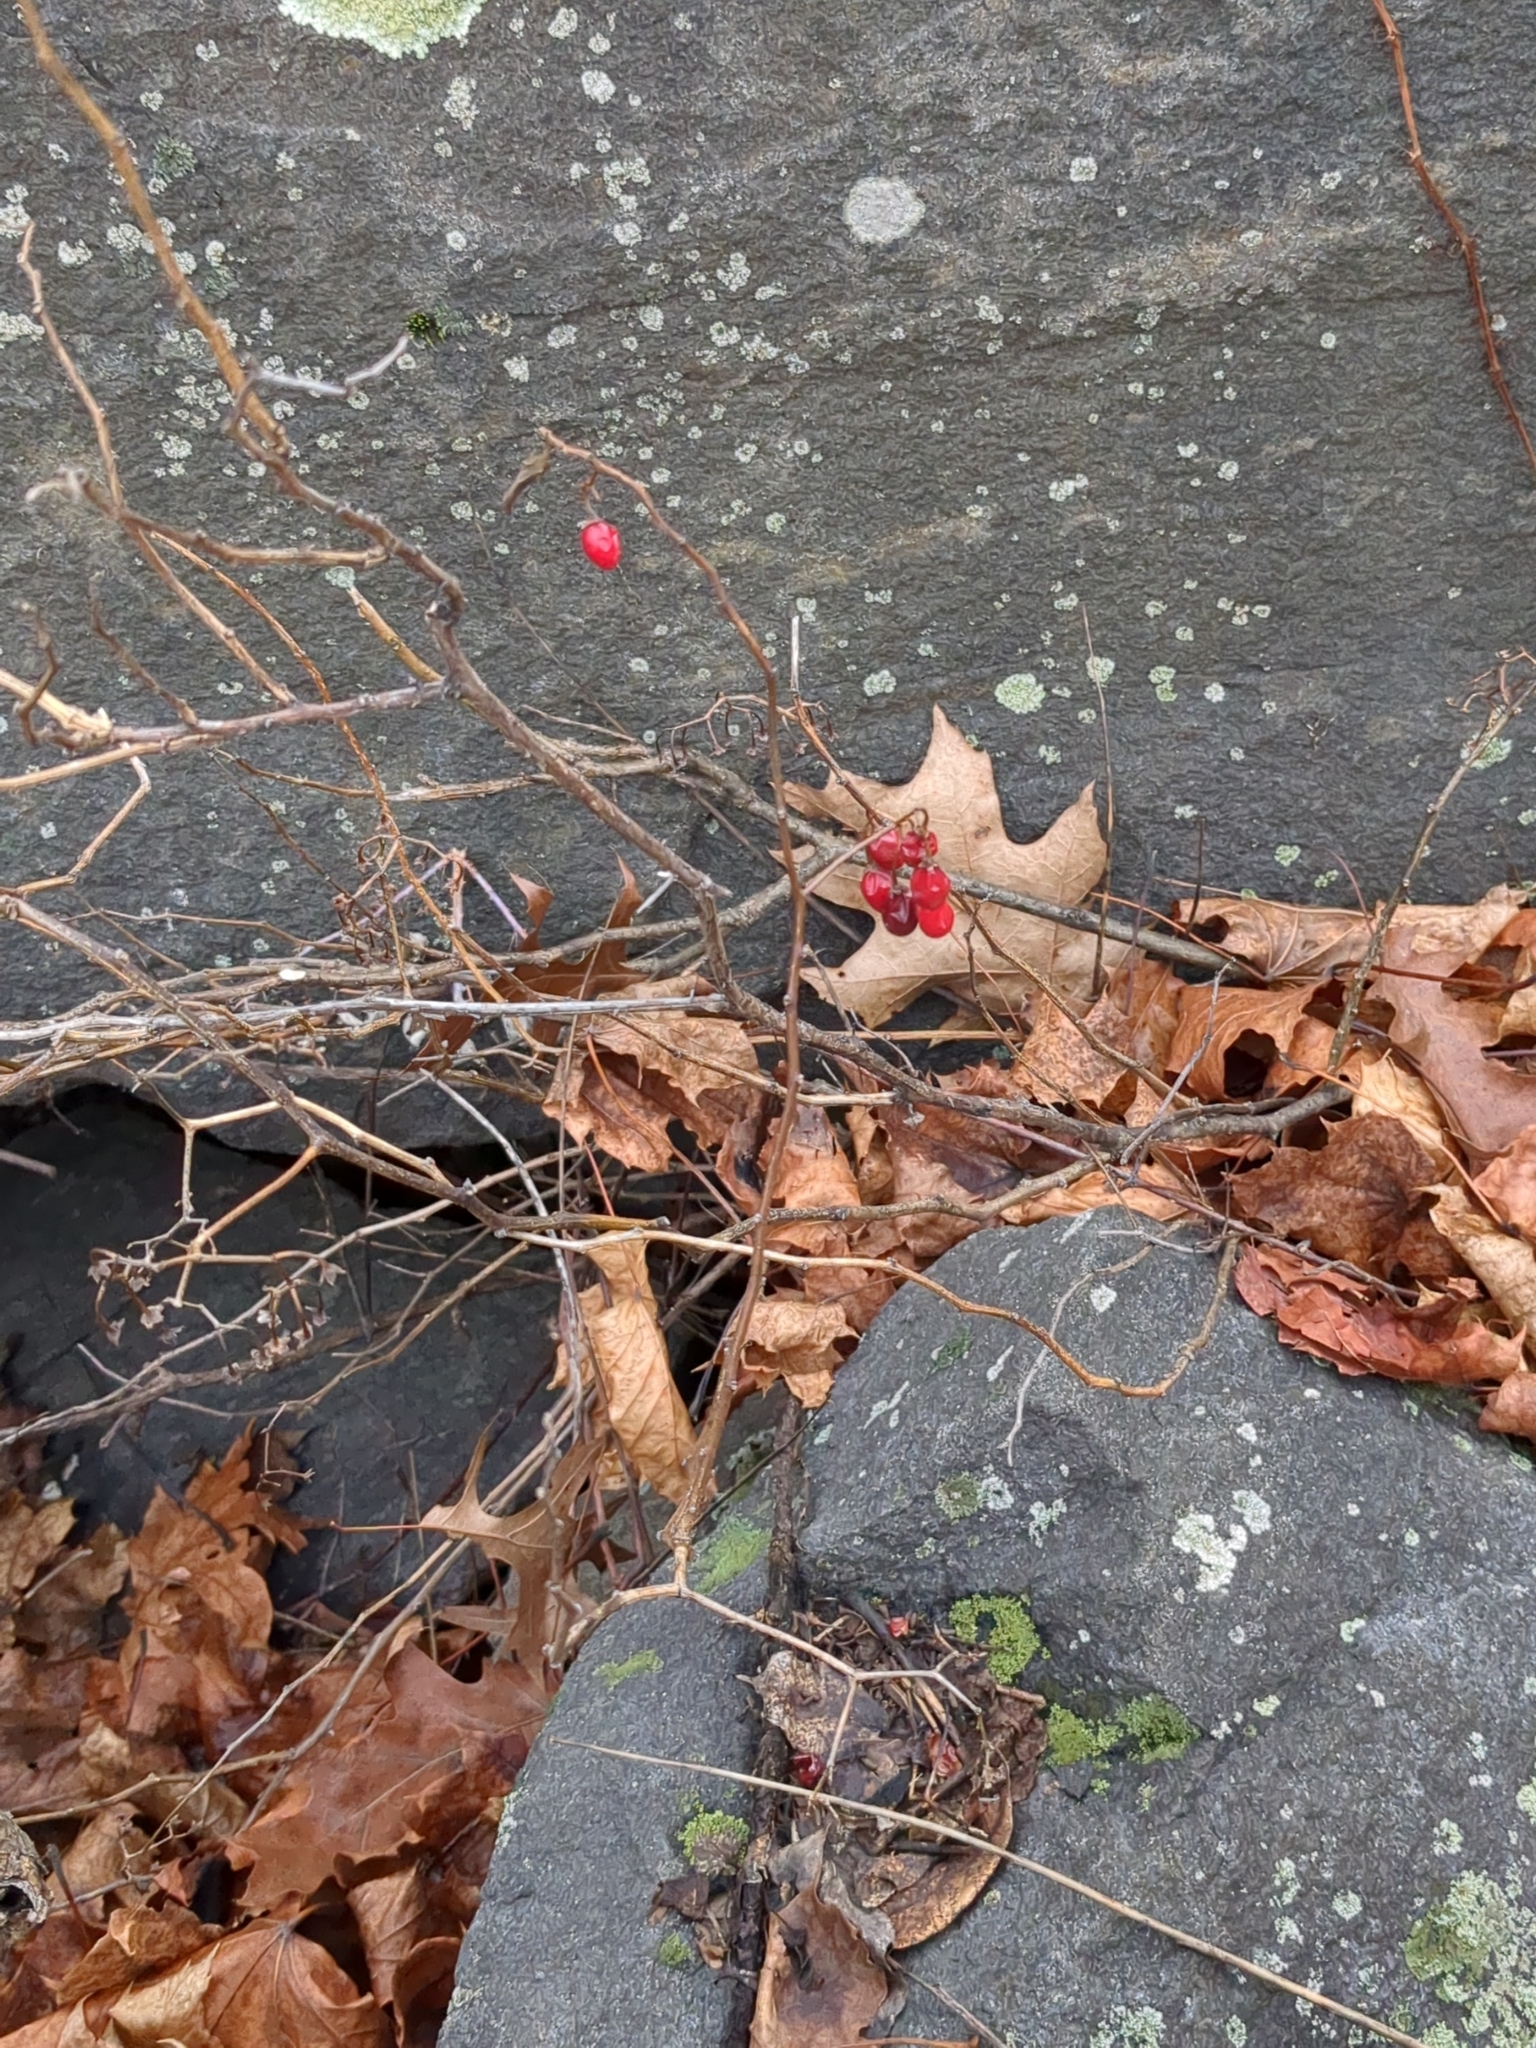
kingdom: Plantae
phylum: Tracheophyta
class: Magnoliopsida
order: Solanales
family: Solanaceae
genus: Solanum
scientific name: Solanum dulcamara
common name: Climbing nightshade
